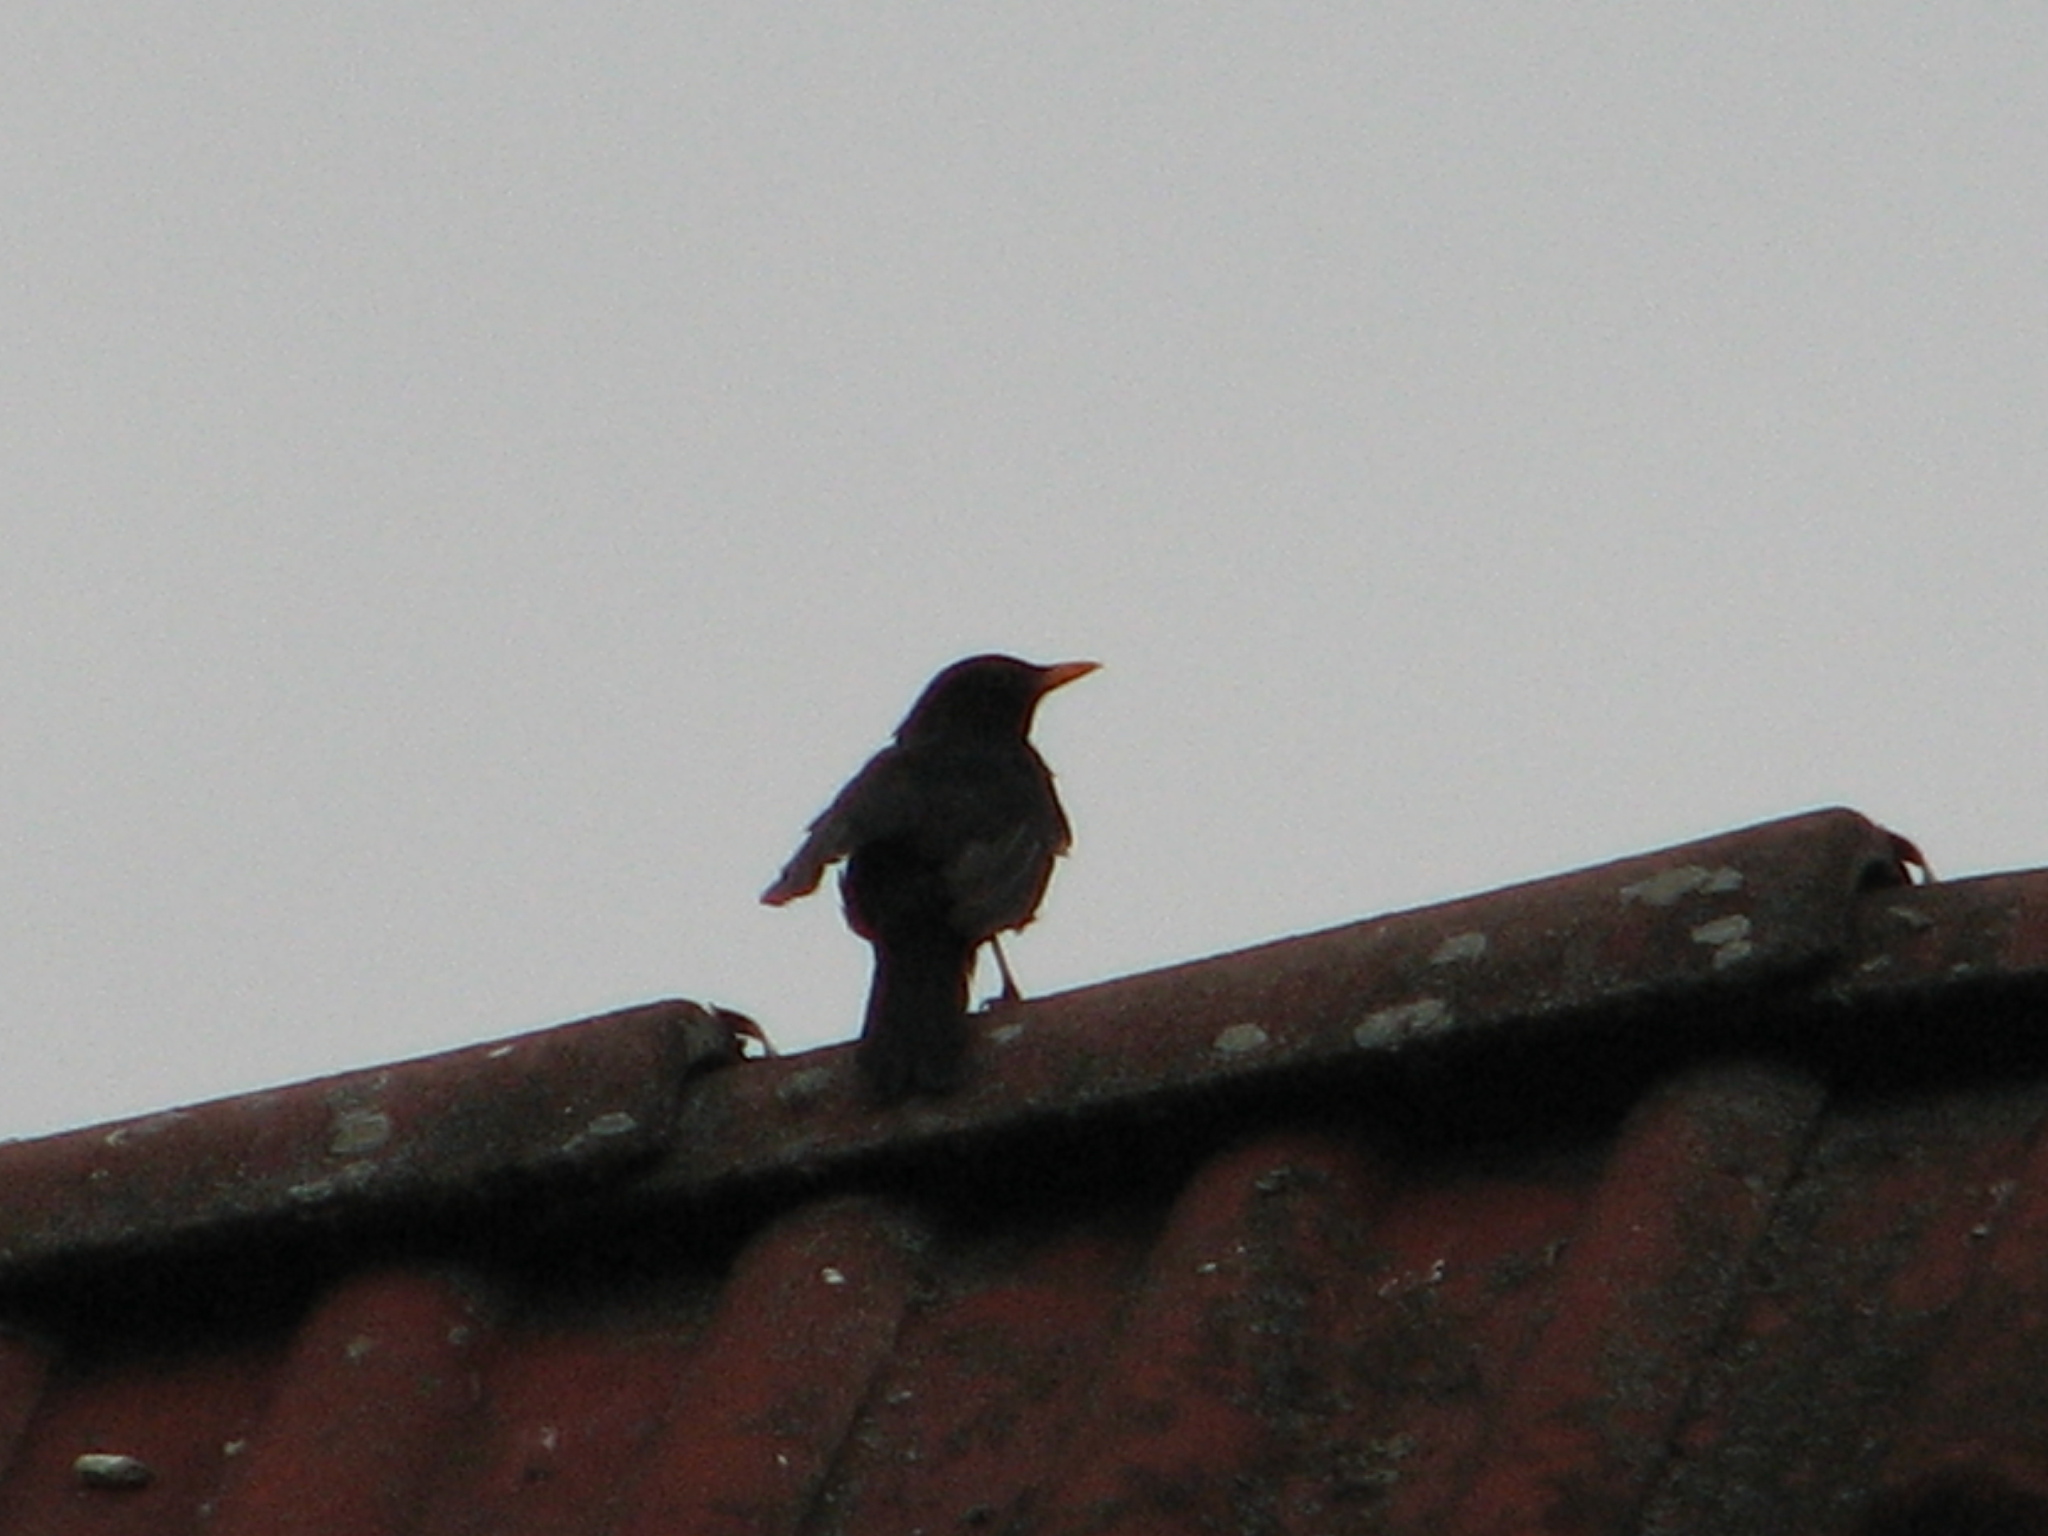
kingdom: Animalia
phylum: Chordata
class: Aves
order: Passeriformes
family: Turdidae
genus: Turdus
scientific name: Turdus merula
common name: Common blackbird
